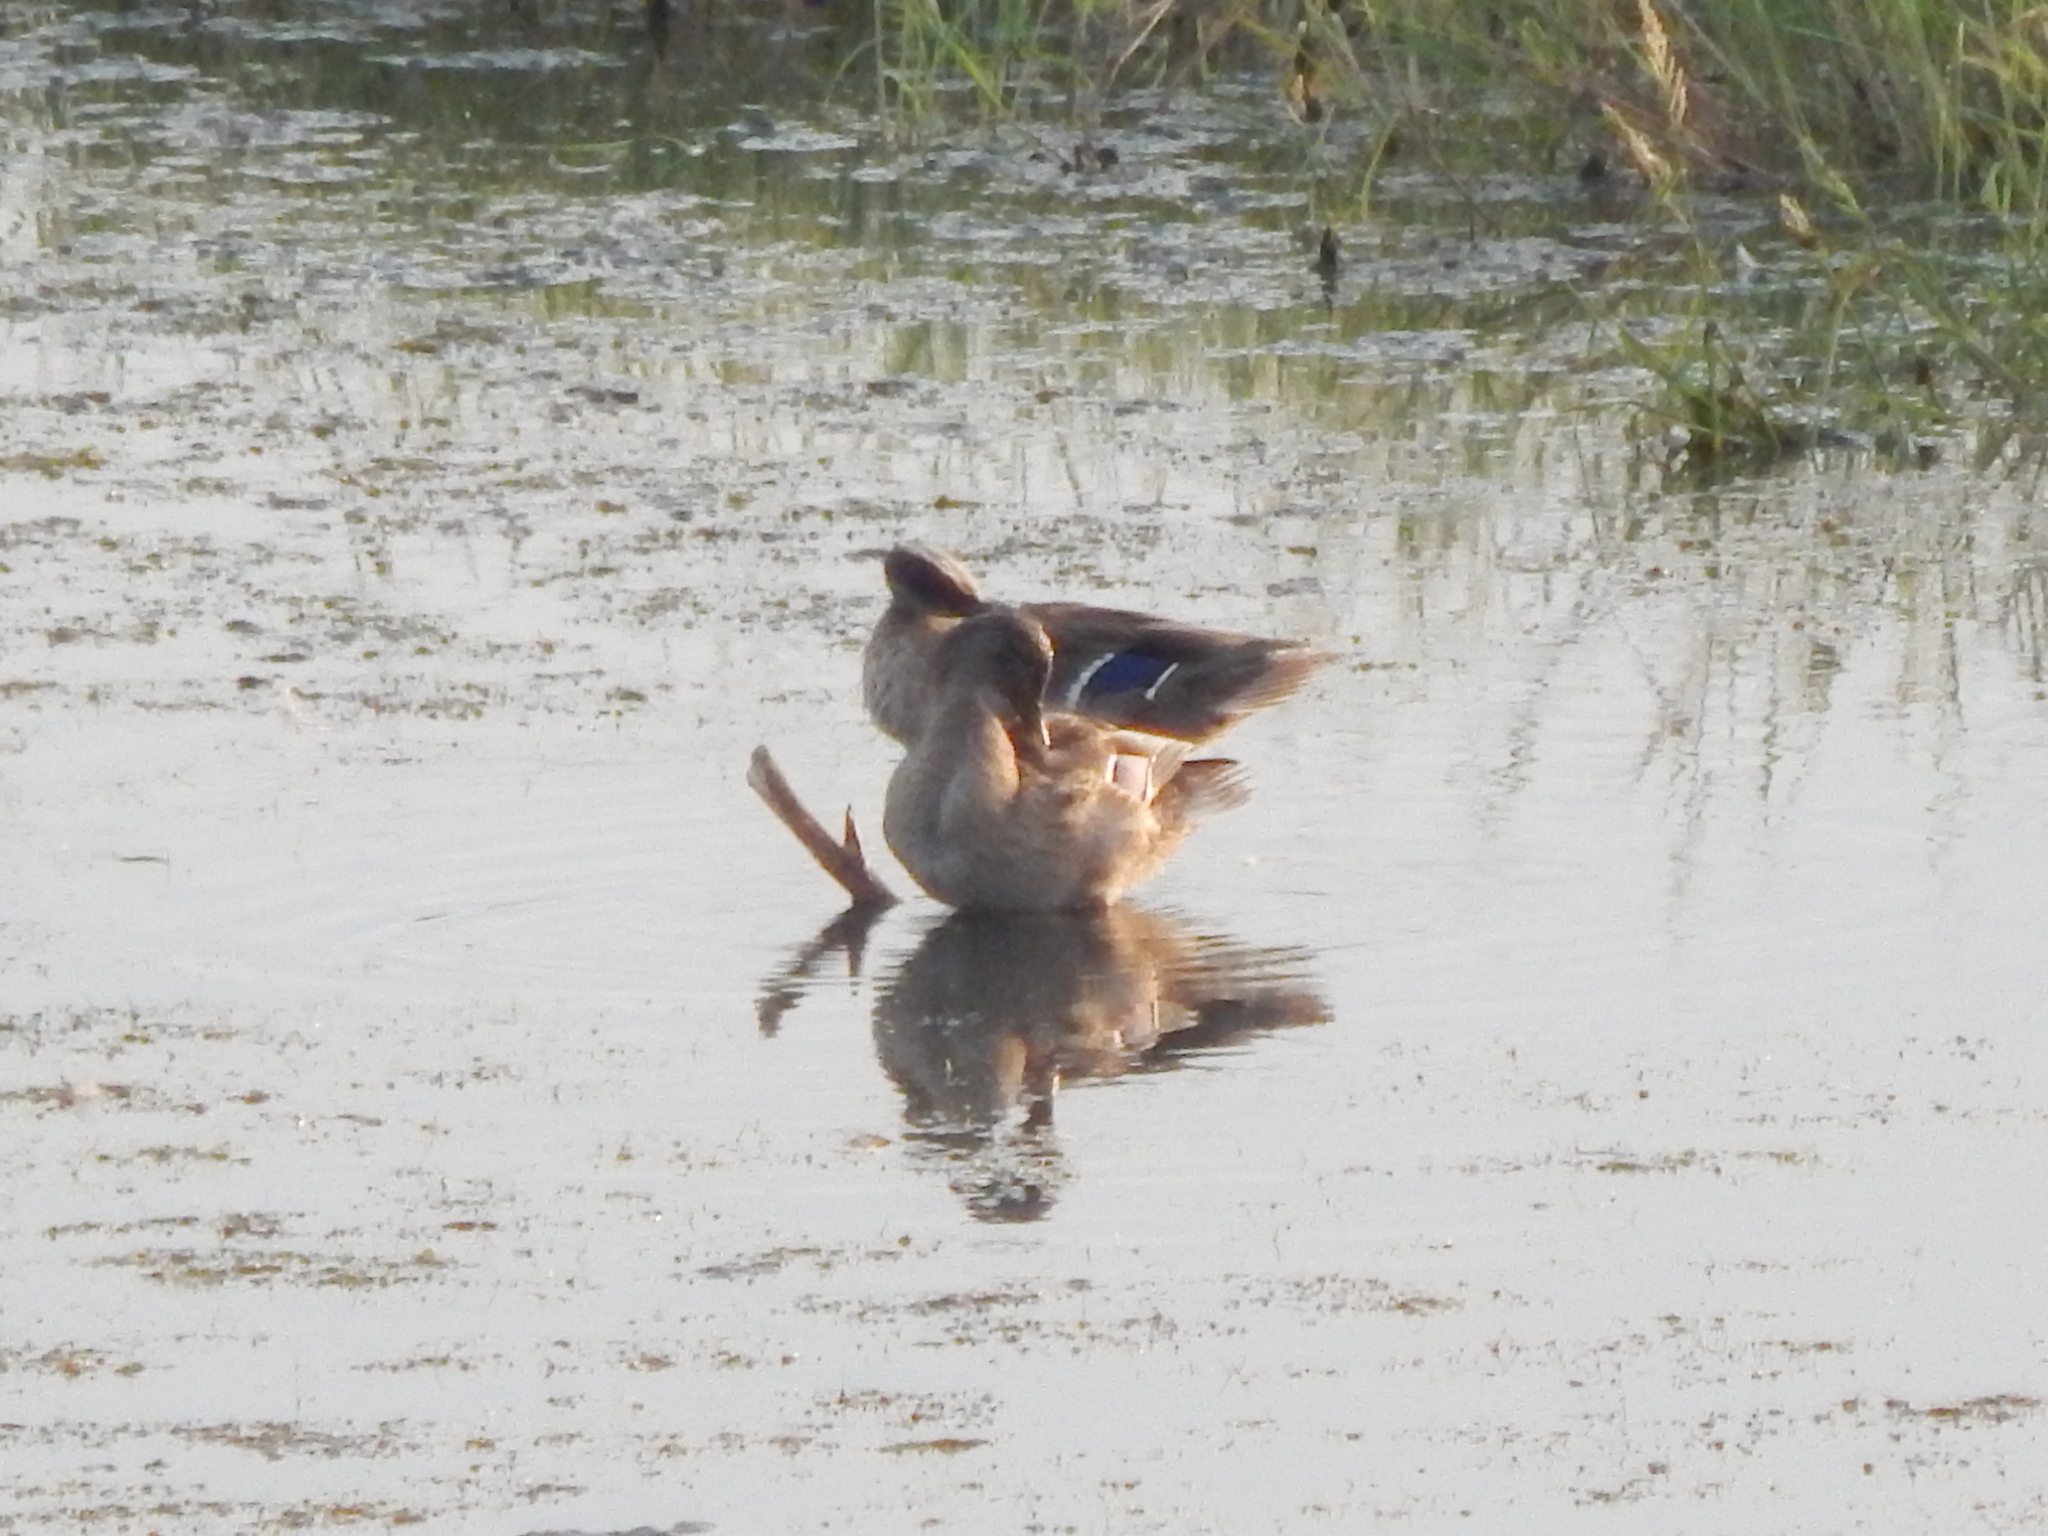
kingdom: Animalia
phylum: Chordata
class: Aves
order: Anseriformes
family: Anatidae
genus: Anas
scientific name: Anas platyrhynchos
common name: Mallard
